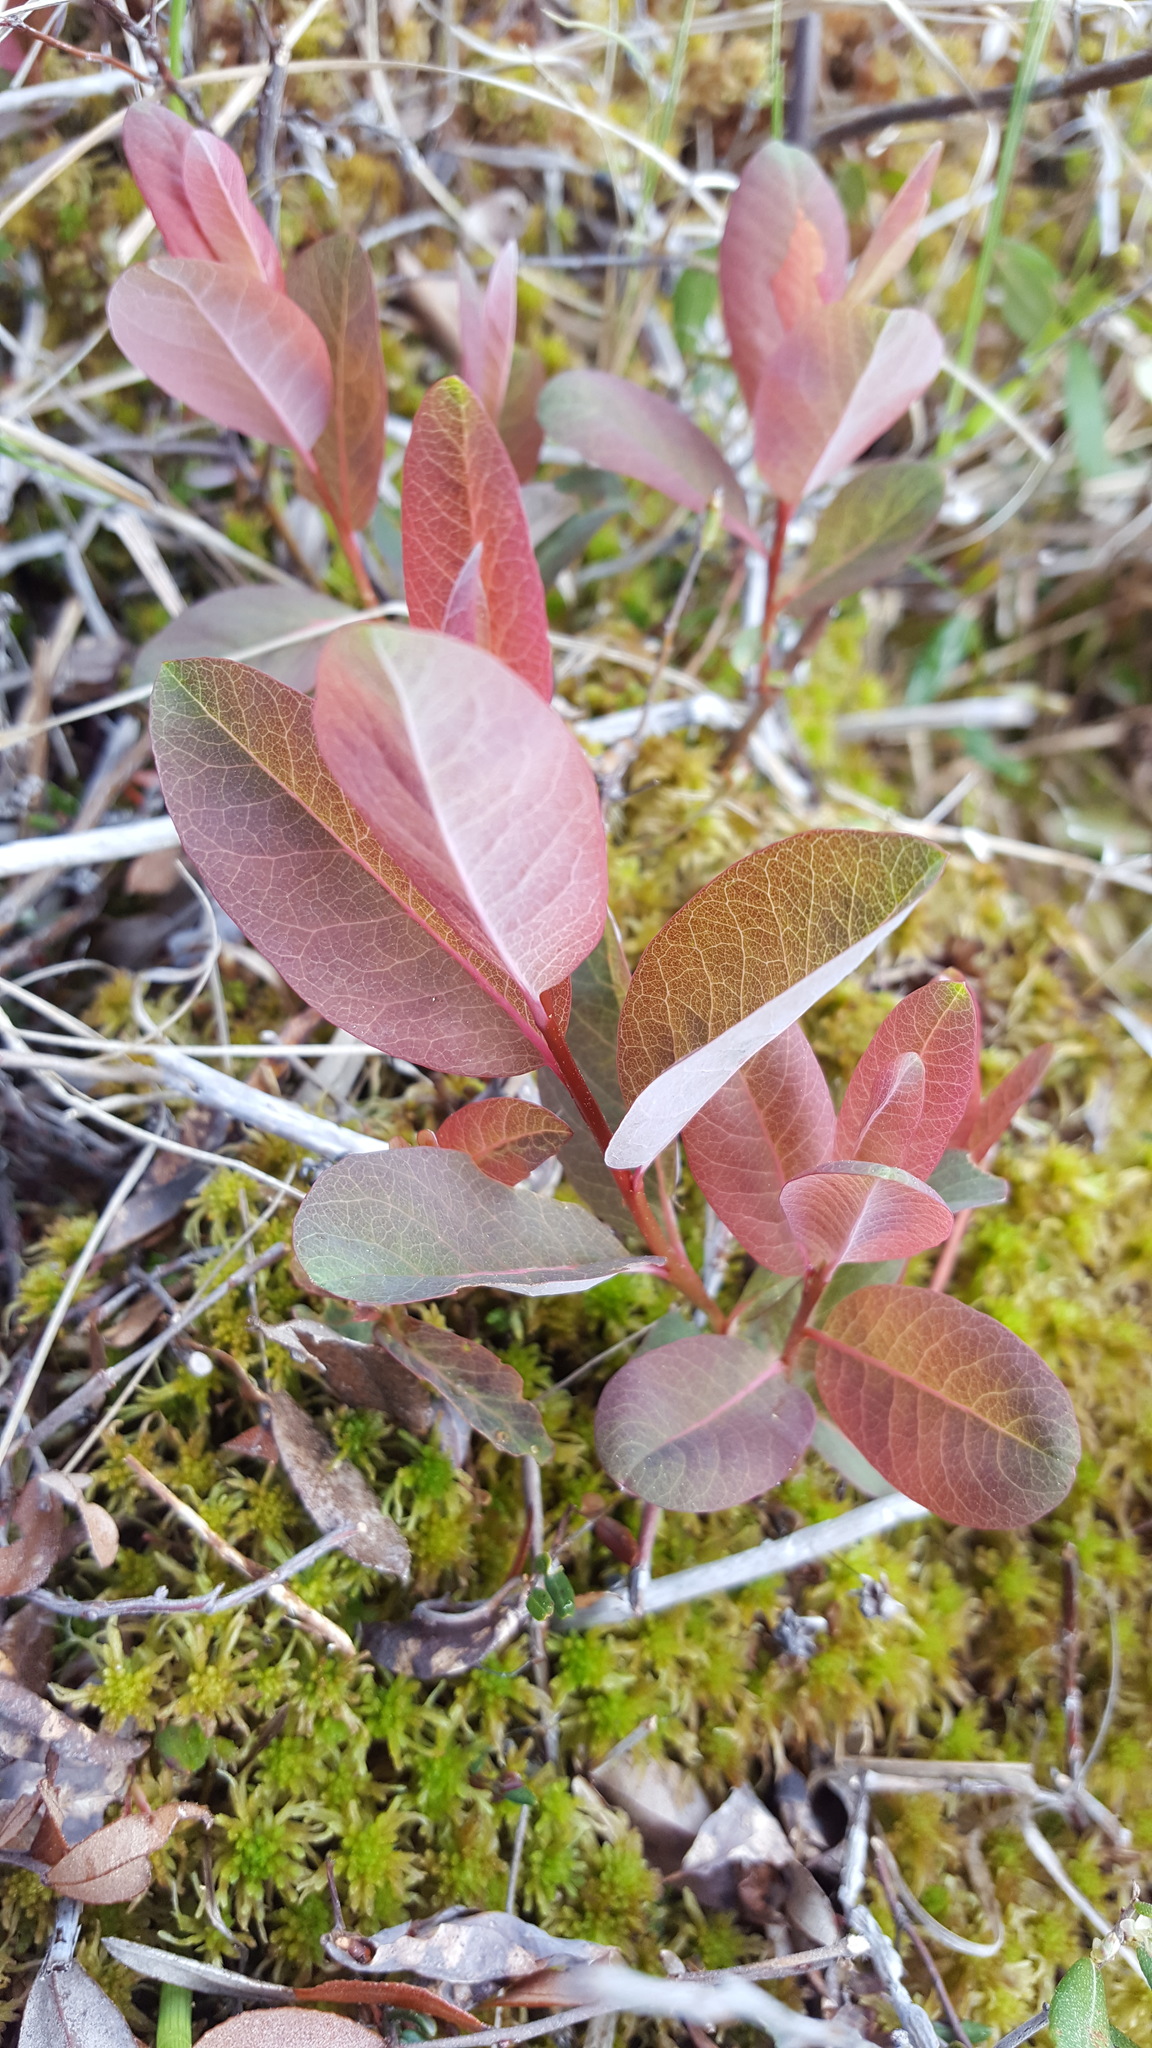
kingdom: Plantae
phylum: Tracheophyta
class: Magnoliopsida
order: Malpighiales
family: Hypericaceae
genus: Triadenum
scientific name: Triadenum fraseri
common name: Fraser's marsh st. johnswort
